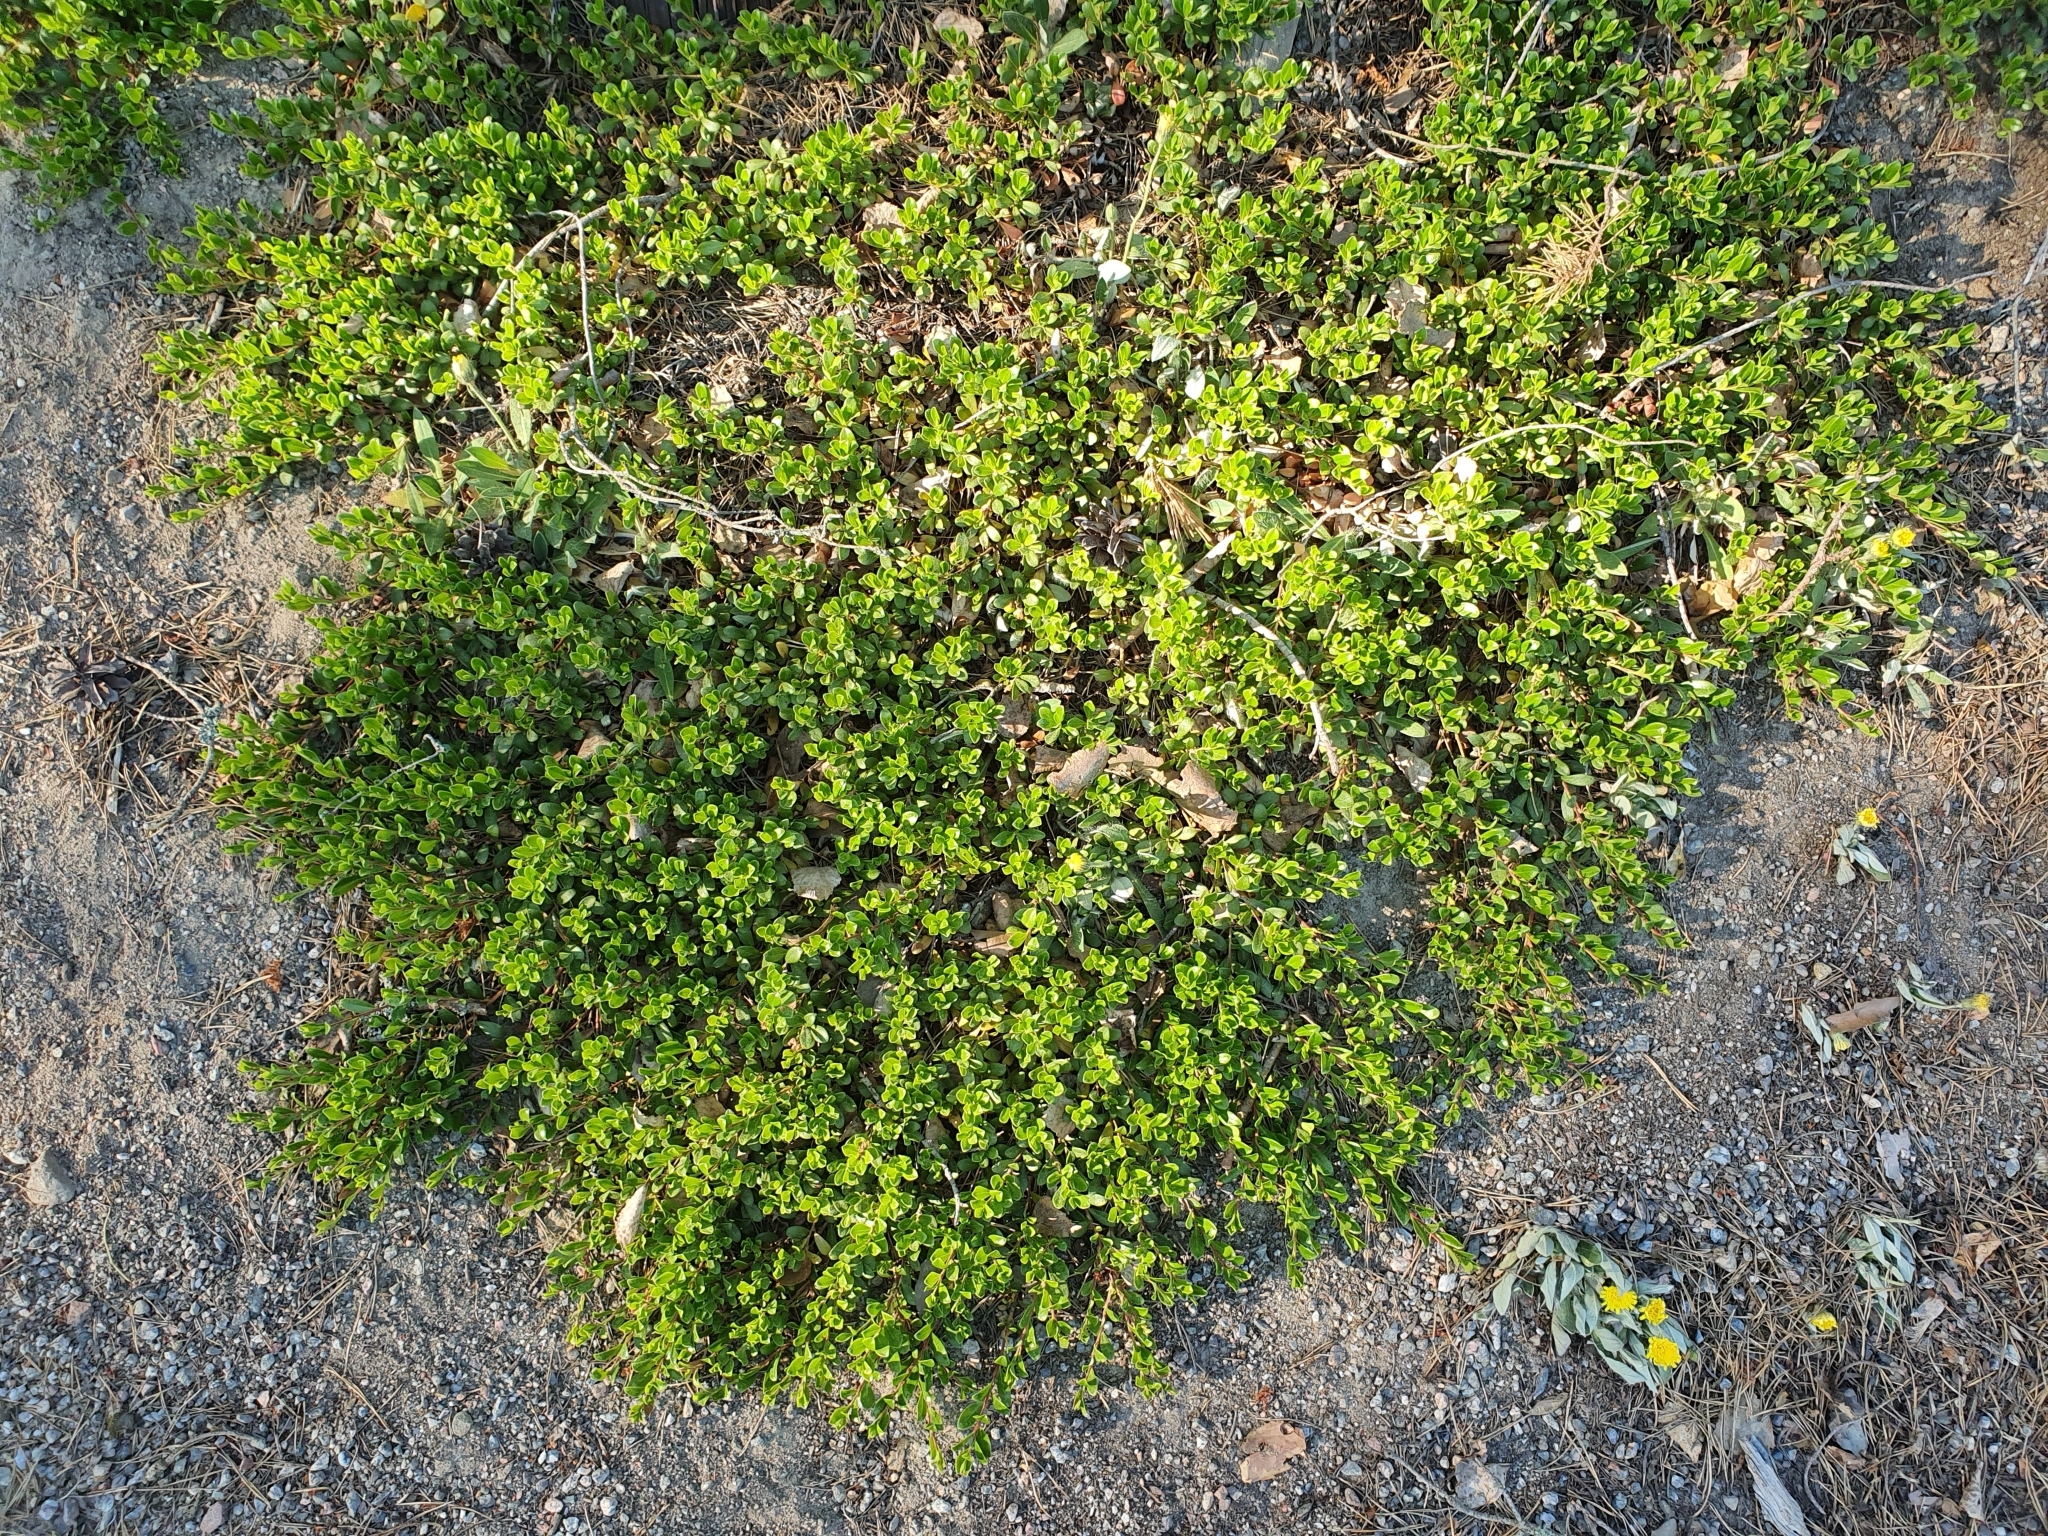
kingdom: Plantae
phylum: Tracheophyta
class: Magnoliopsida
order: Ericales
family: Ericaceae
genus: Arctostaphylos
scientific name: Arctostaphylos uva-ursi
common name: Bearberry
